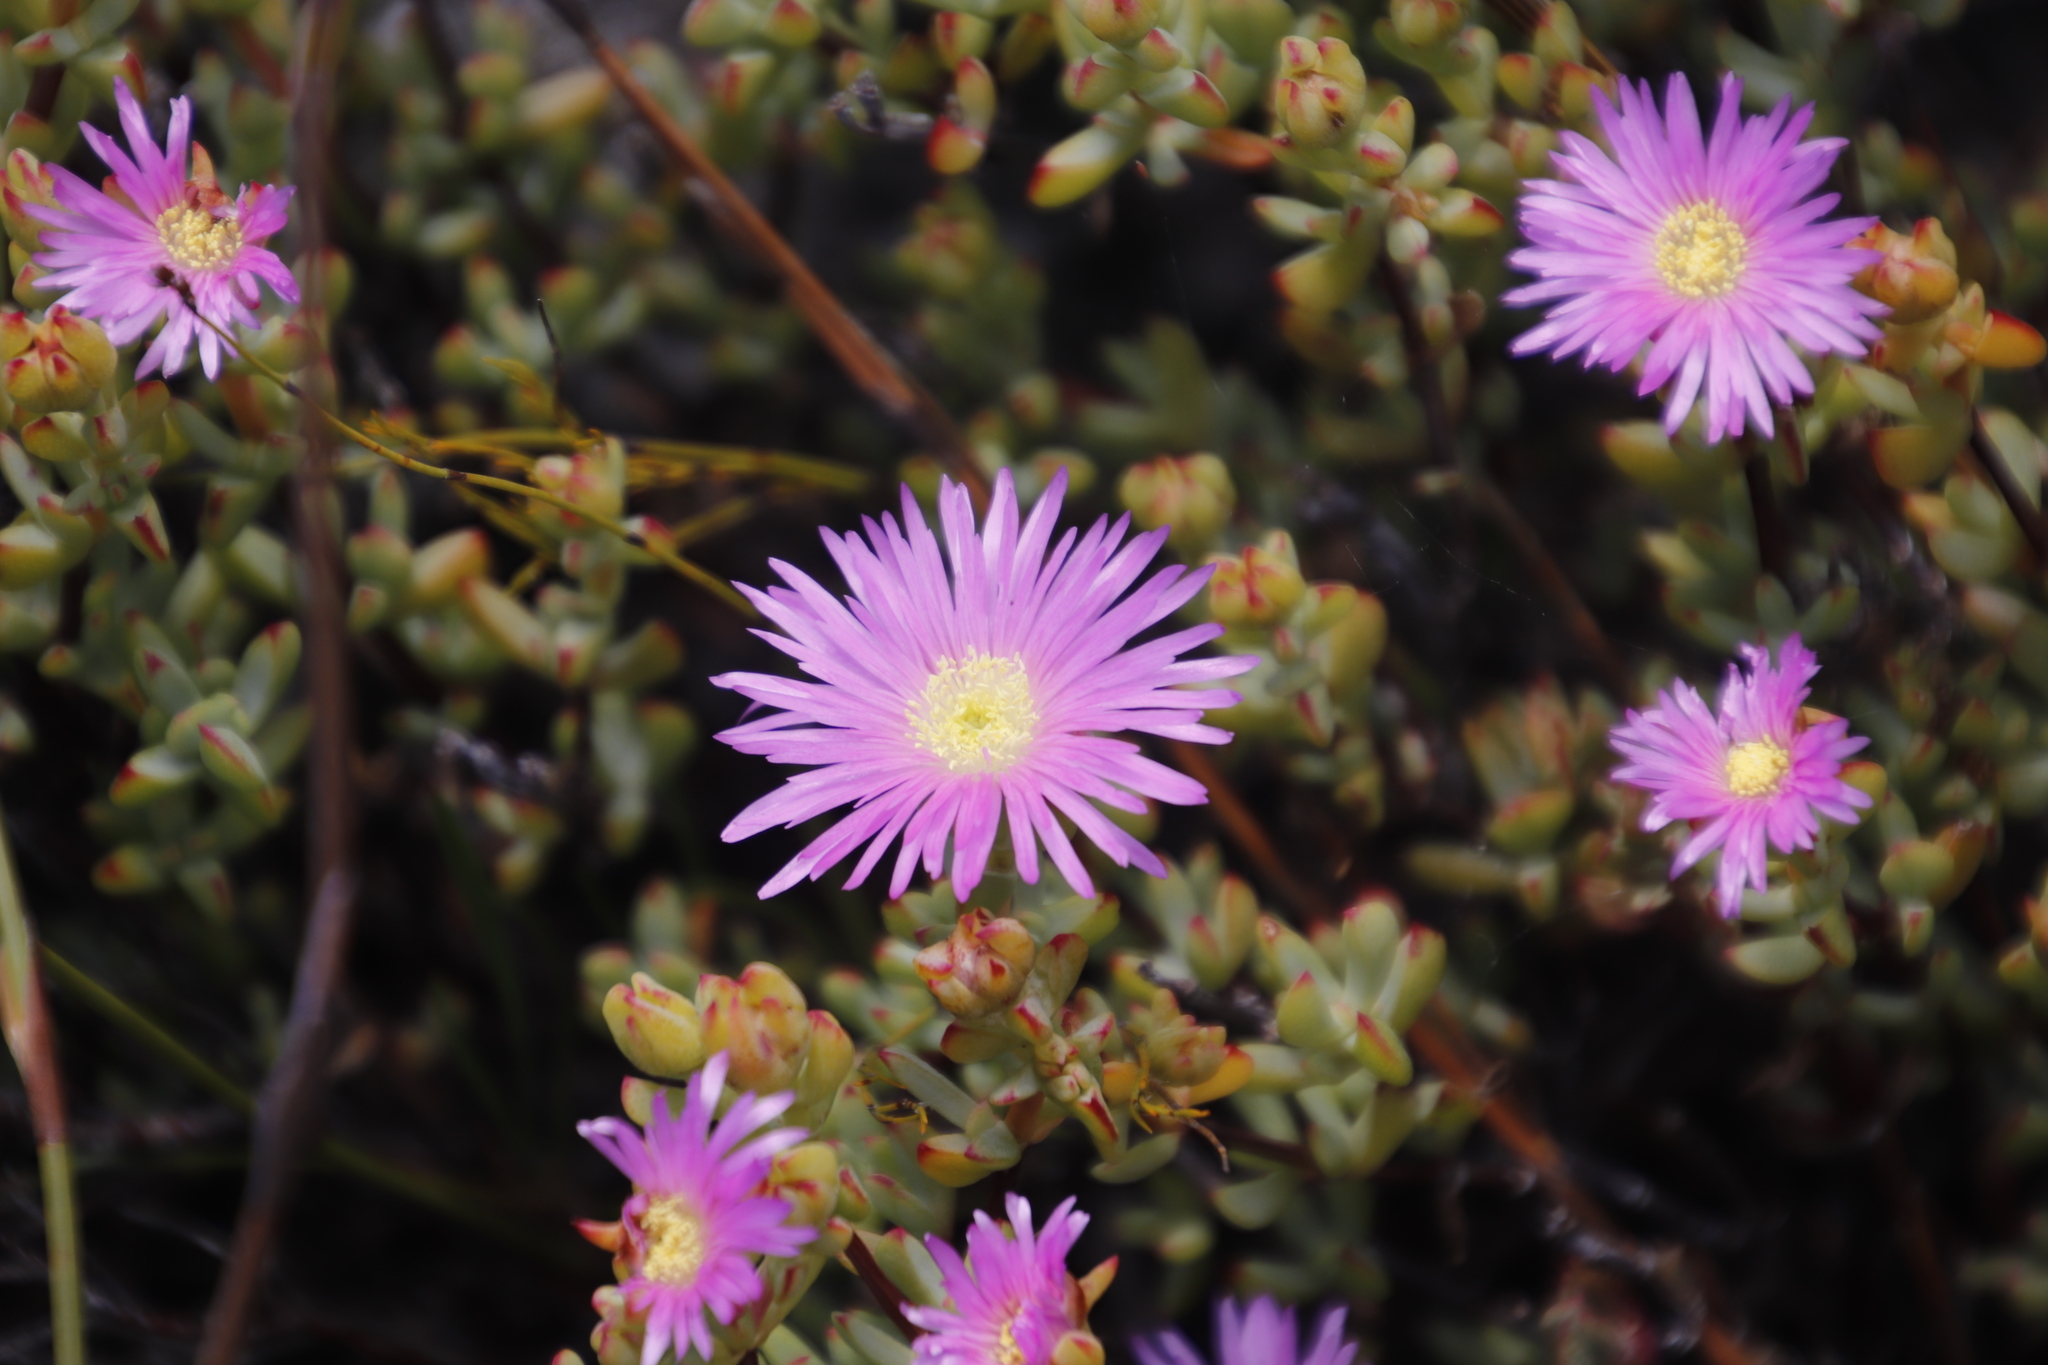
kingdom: Plantae
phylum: Tracheophyta
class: Magnoliopsida
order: Caryophyllales
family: Aizoaceae
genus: Oscularia
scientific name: Oscularia falciformis
